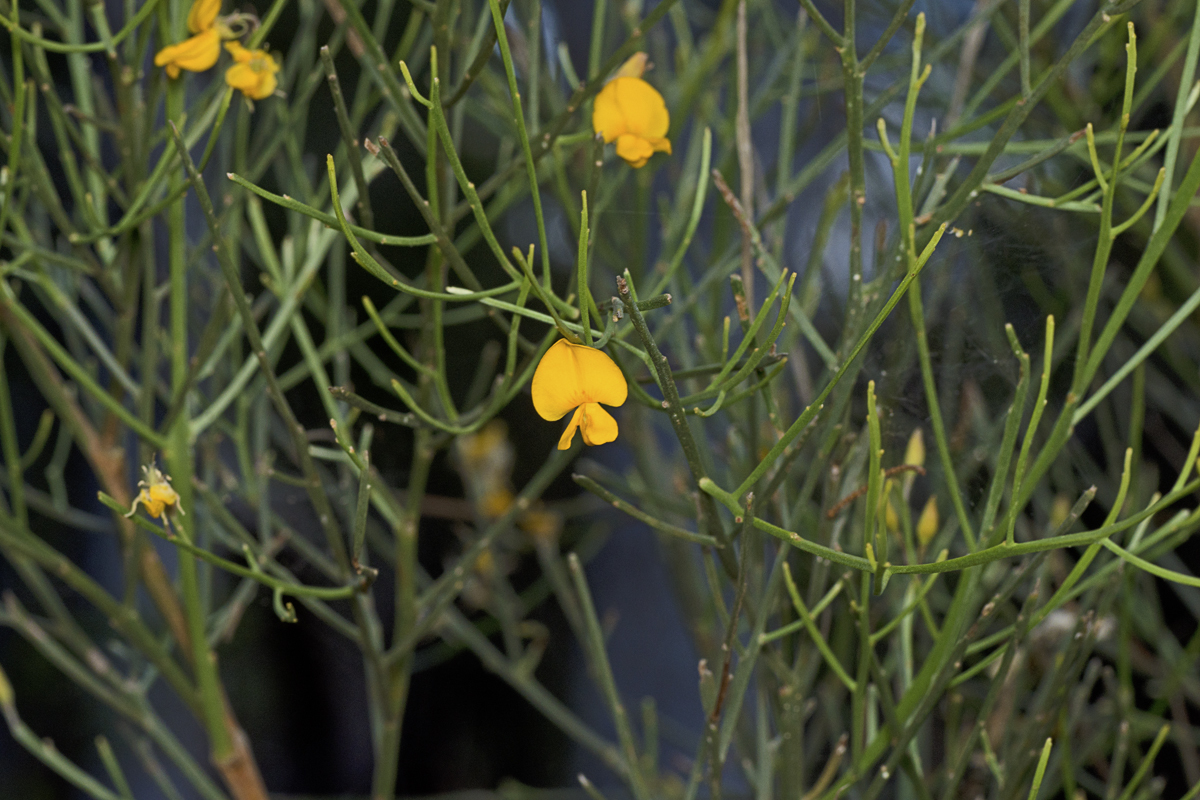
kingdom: Plantae
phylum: Tracheophyta
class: Magnoliopsida
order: Fabales
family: Fabaceae
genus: Jacksonia
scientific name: Jacksonia scoparia
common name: Dogwood
